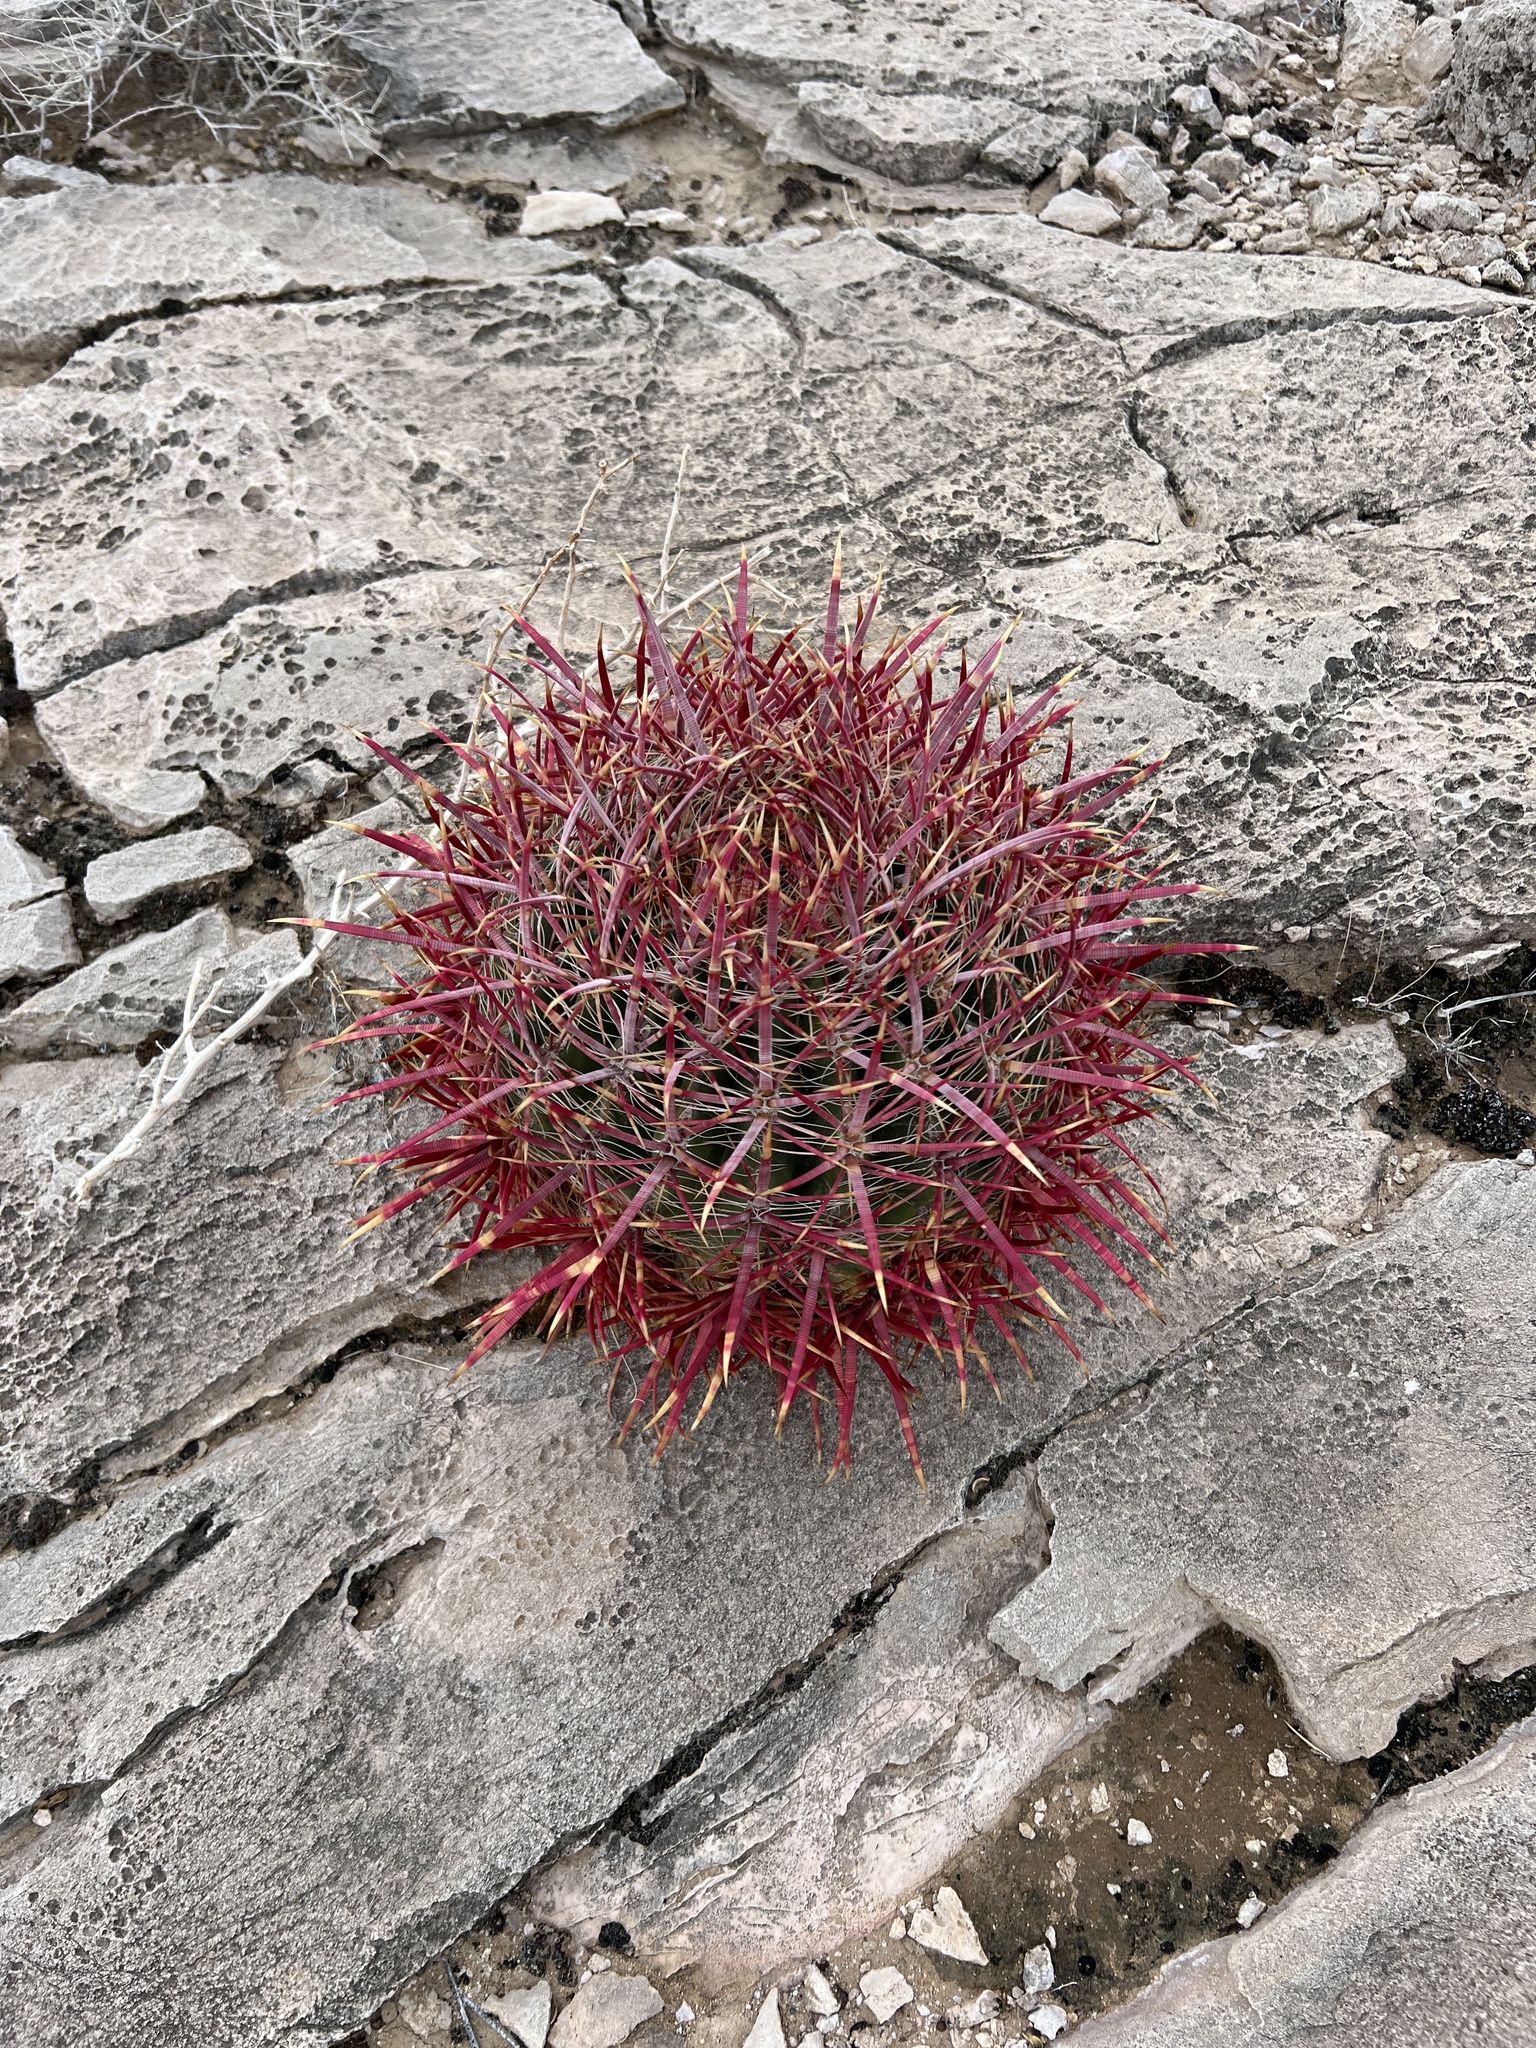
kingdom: Plantae
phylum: Tracheophyta
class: Magnoliopsida
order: Caryophyllales
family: Cactaceae
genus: Ferocactus
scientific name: Ferocactus cylindraceus
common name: California barrel cactus
